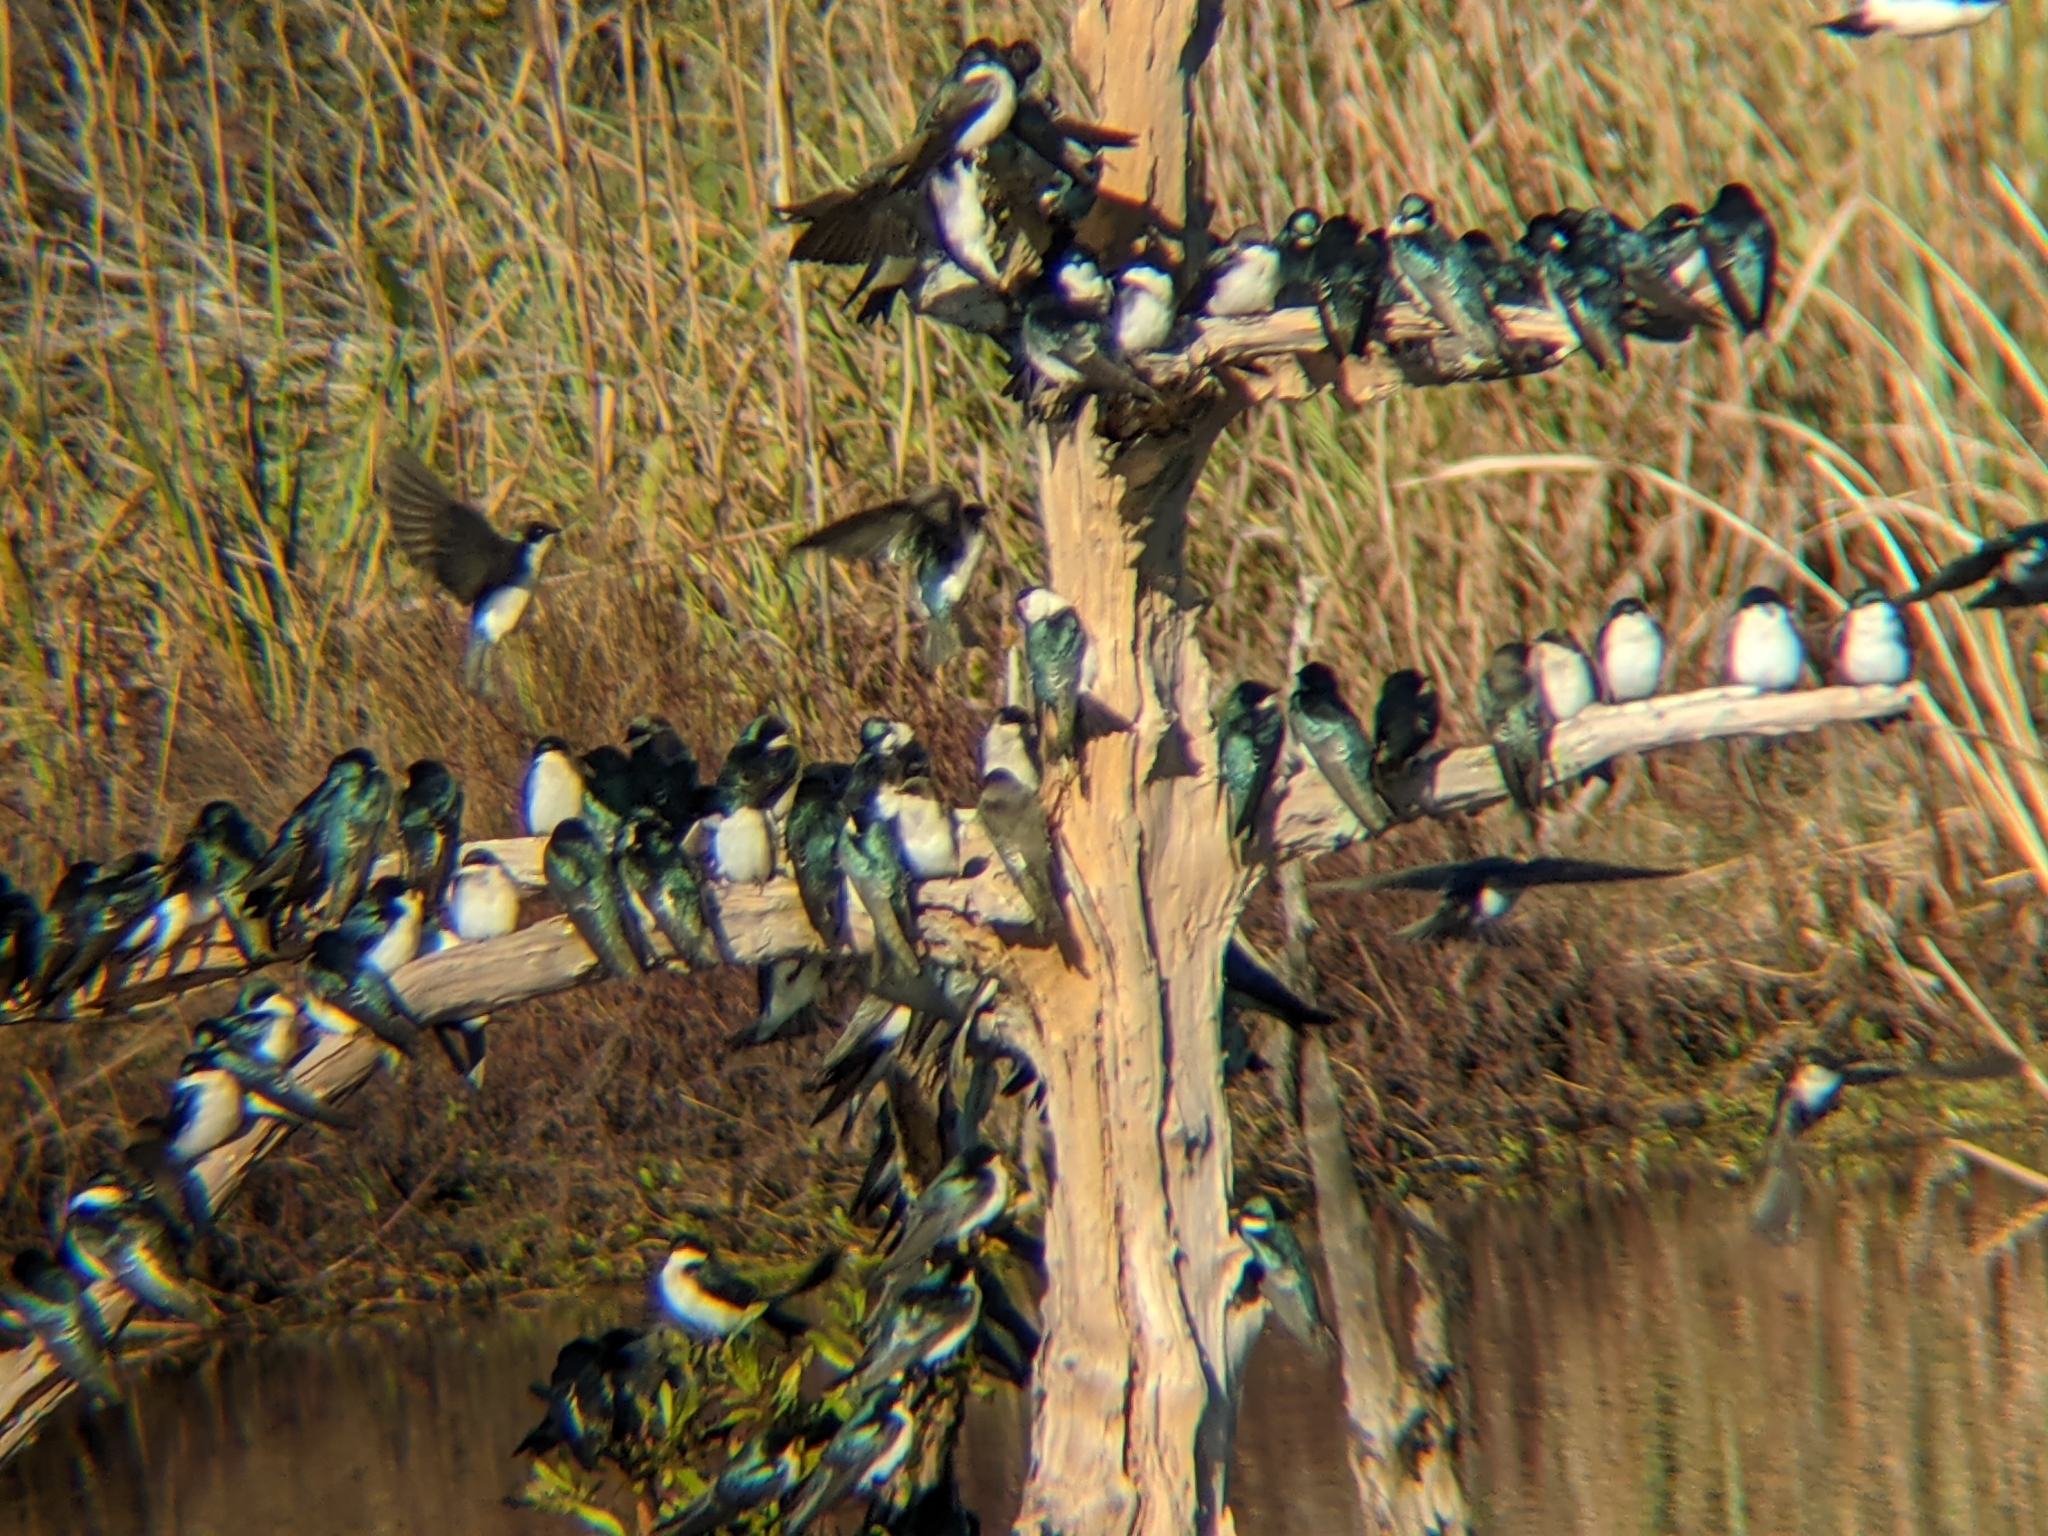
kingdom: Animalia
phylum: Chordata
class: Aves
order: Passeriformes
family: Hirundinidae
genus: Tachycineta
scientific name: Tachycineta bicolor
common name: Tree swallow
